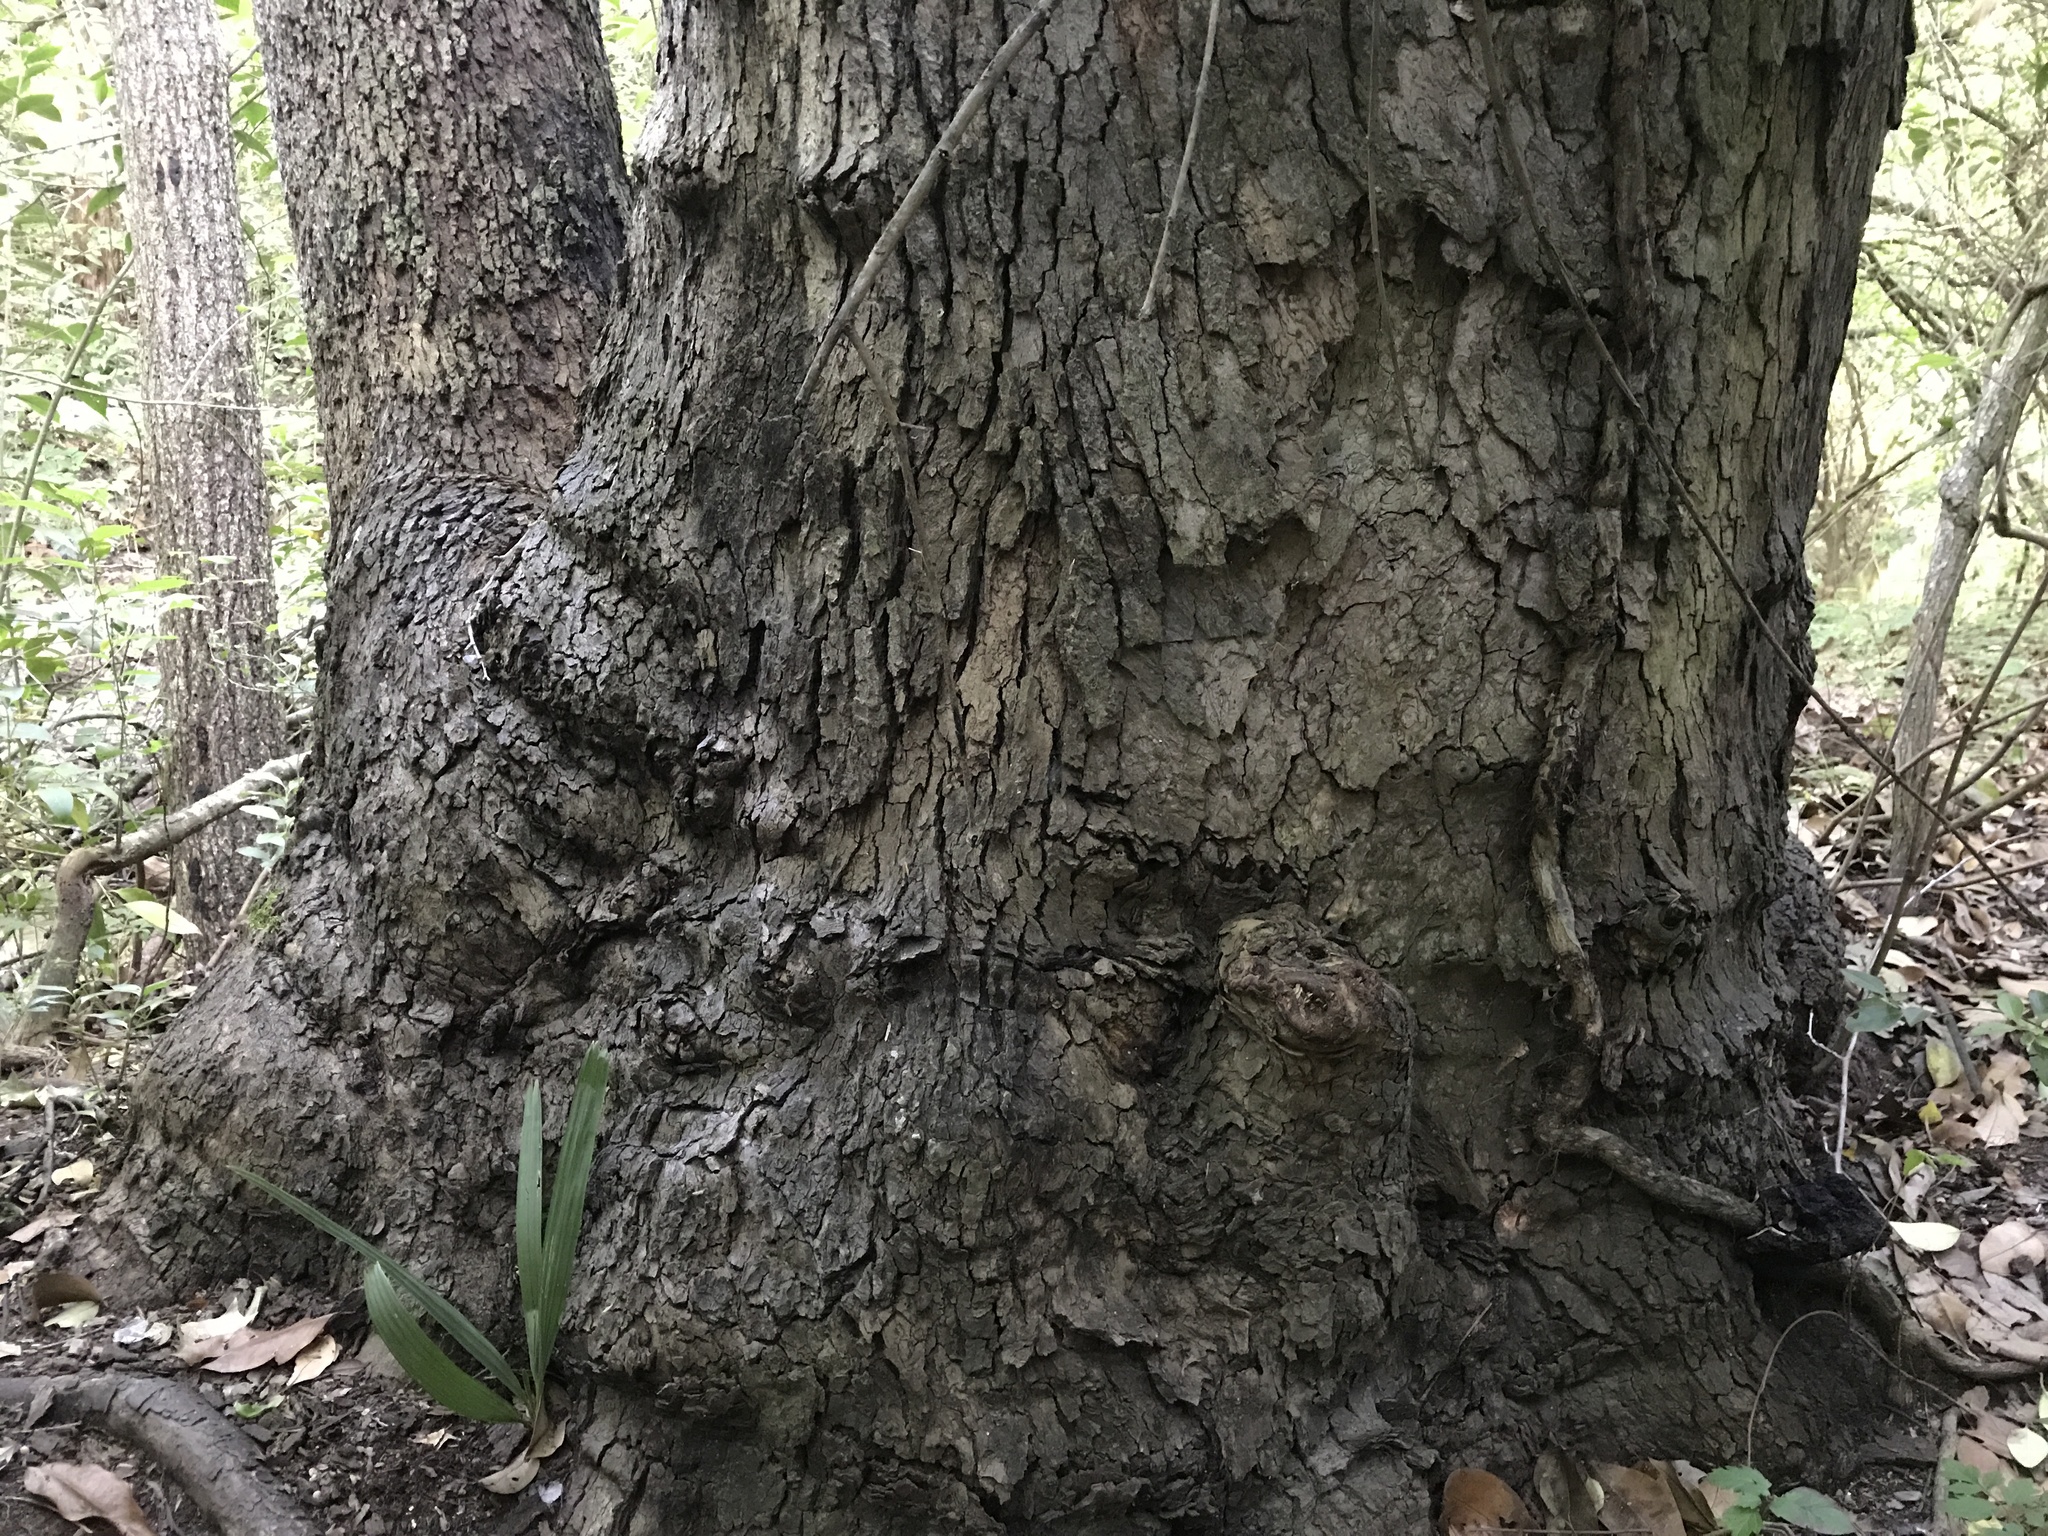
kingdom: Plantae
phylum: Tracheophyta
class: Magnoliopsida
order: Proteales
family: Platanaceae
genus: Platanus
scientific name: Platanus occidentalis
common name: American sycamore
